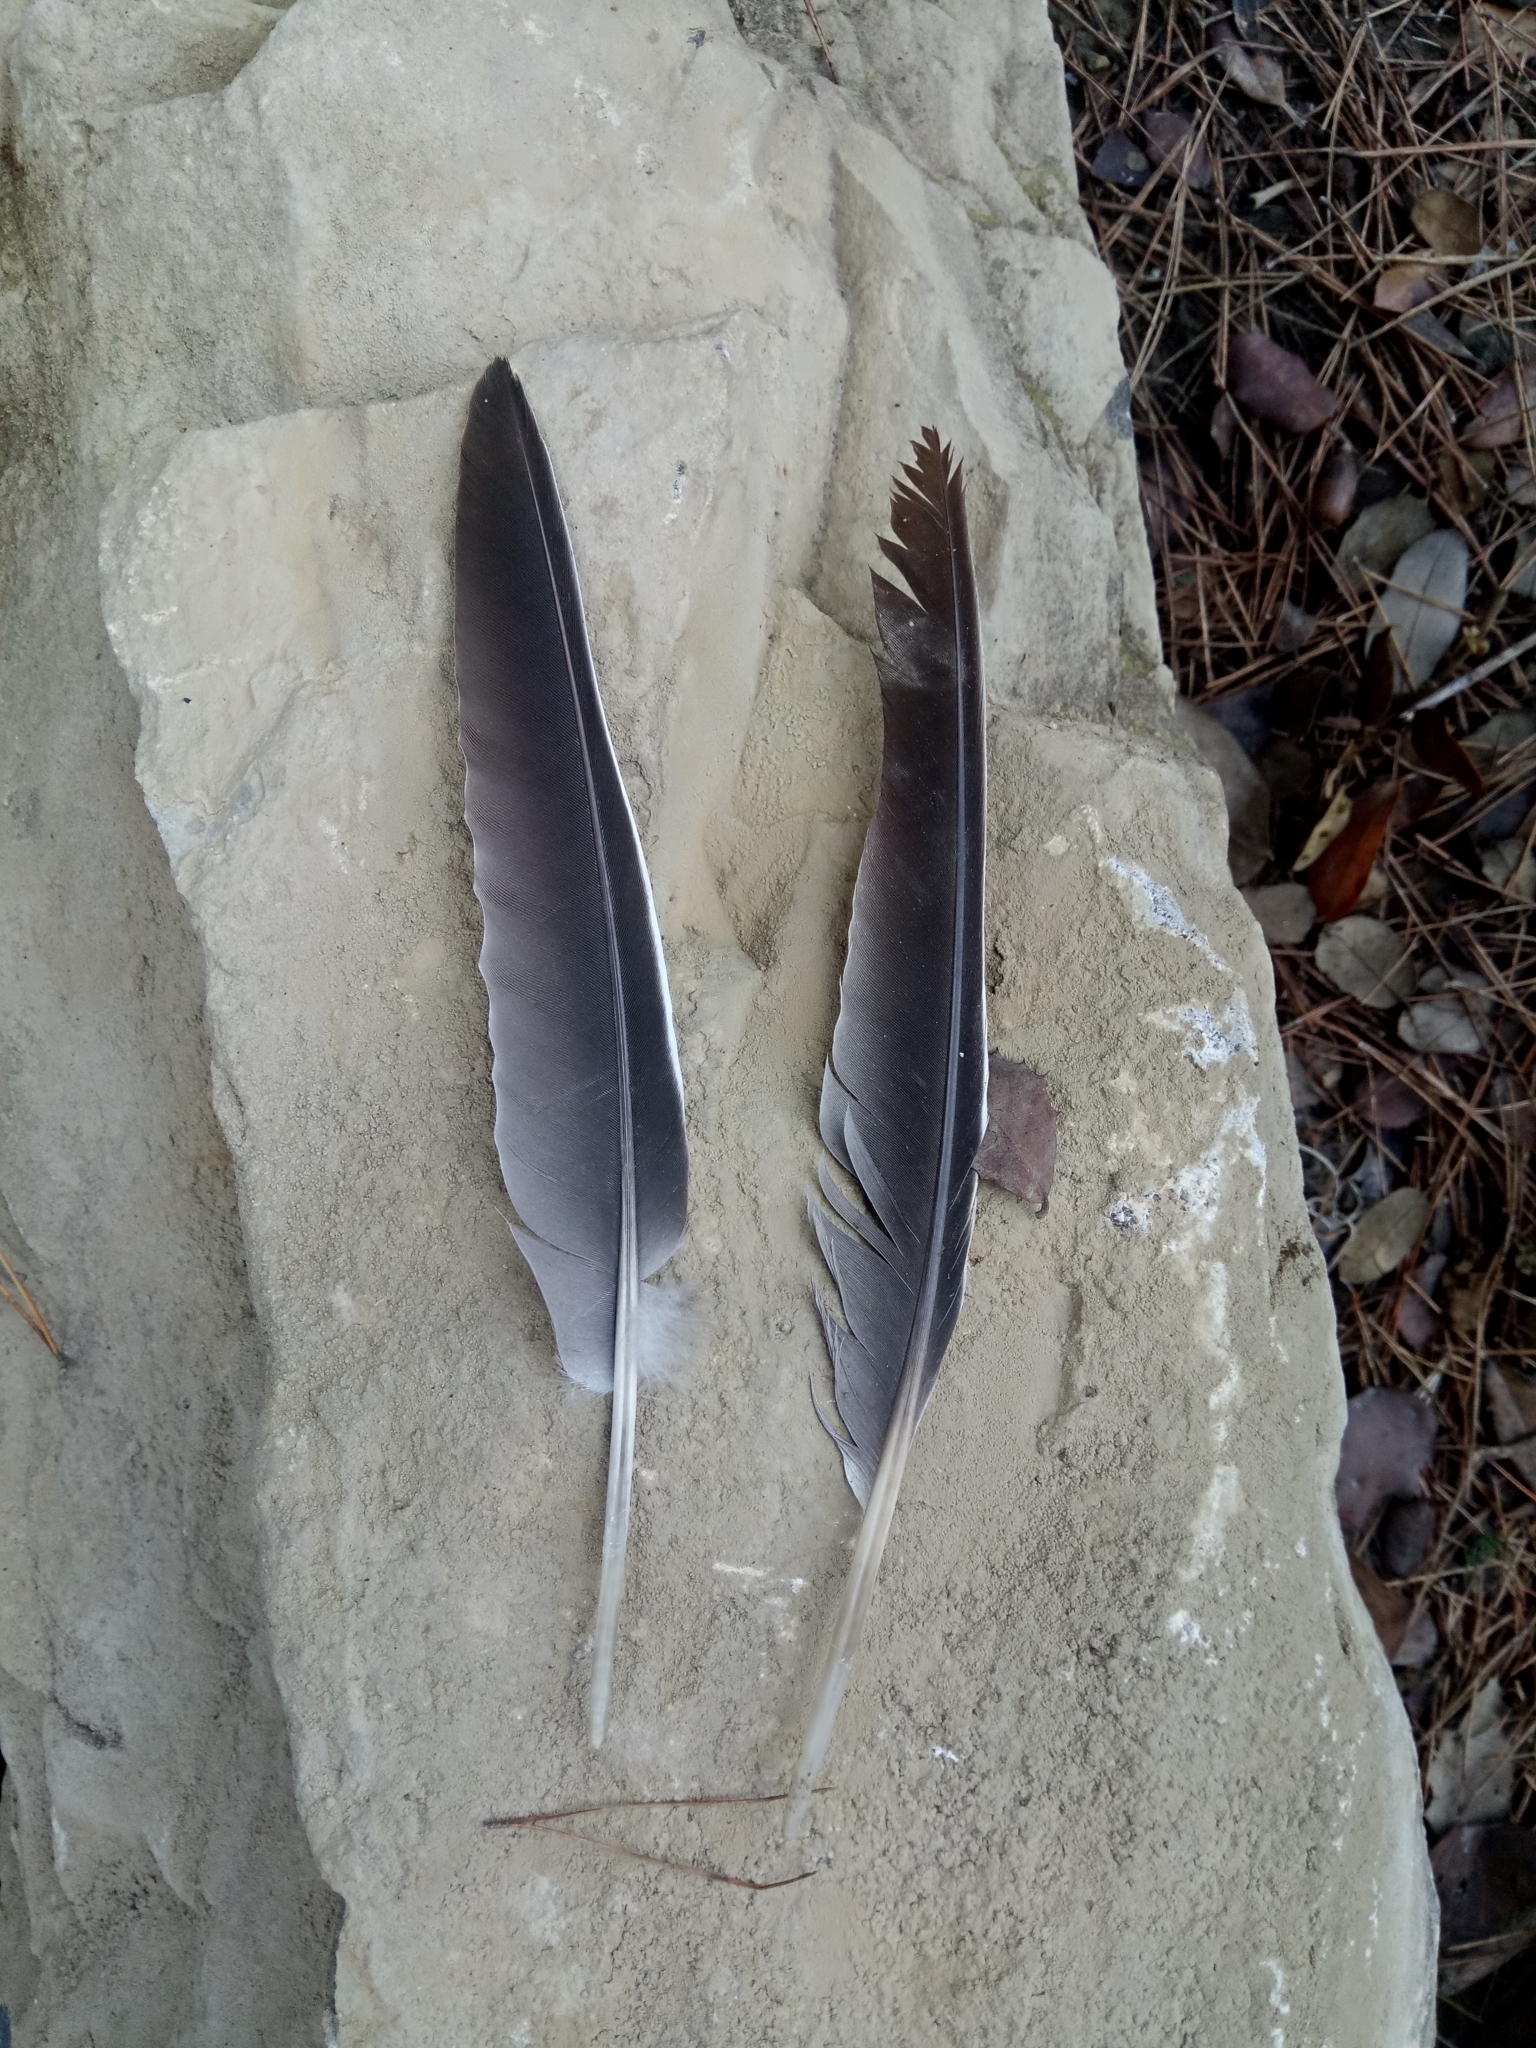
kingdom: Animalia
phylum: Chordata
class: Aves
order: Columbiformes
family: Columbidae
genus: Columba
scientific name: Columba palumbus
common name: Common wood pigeon
